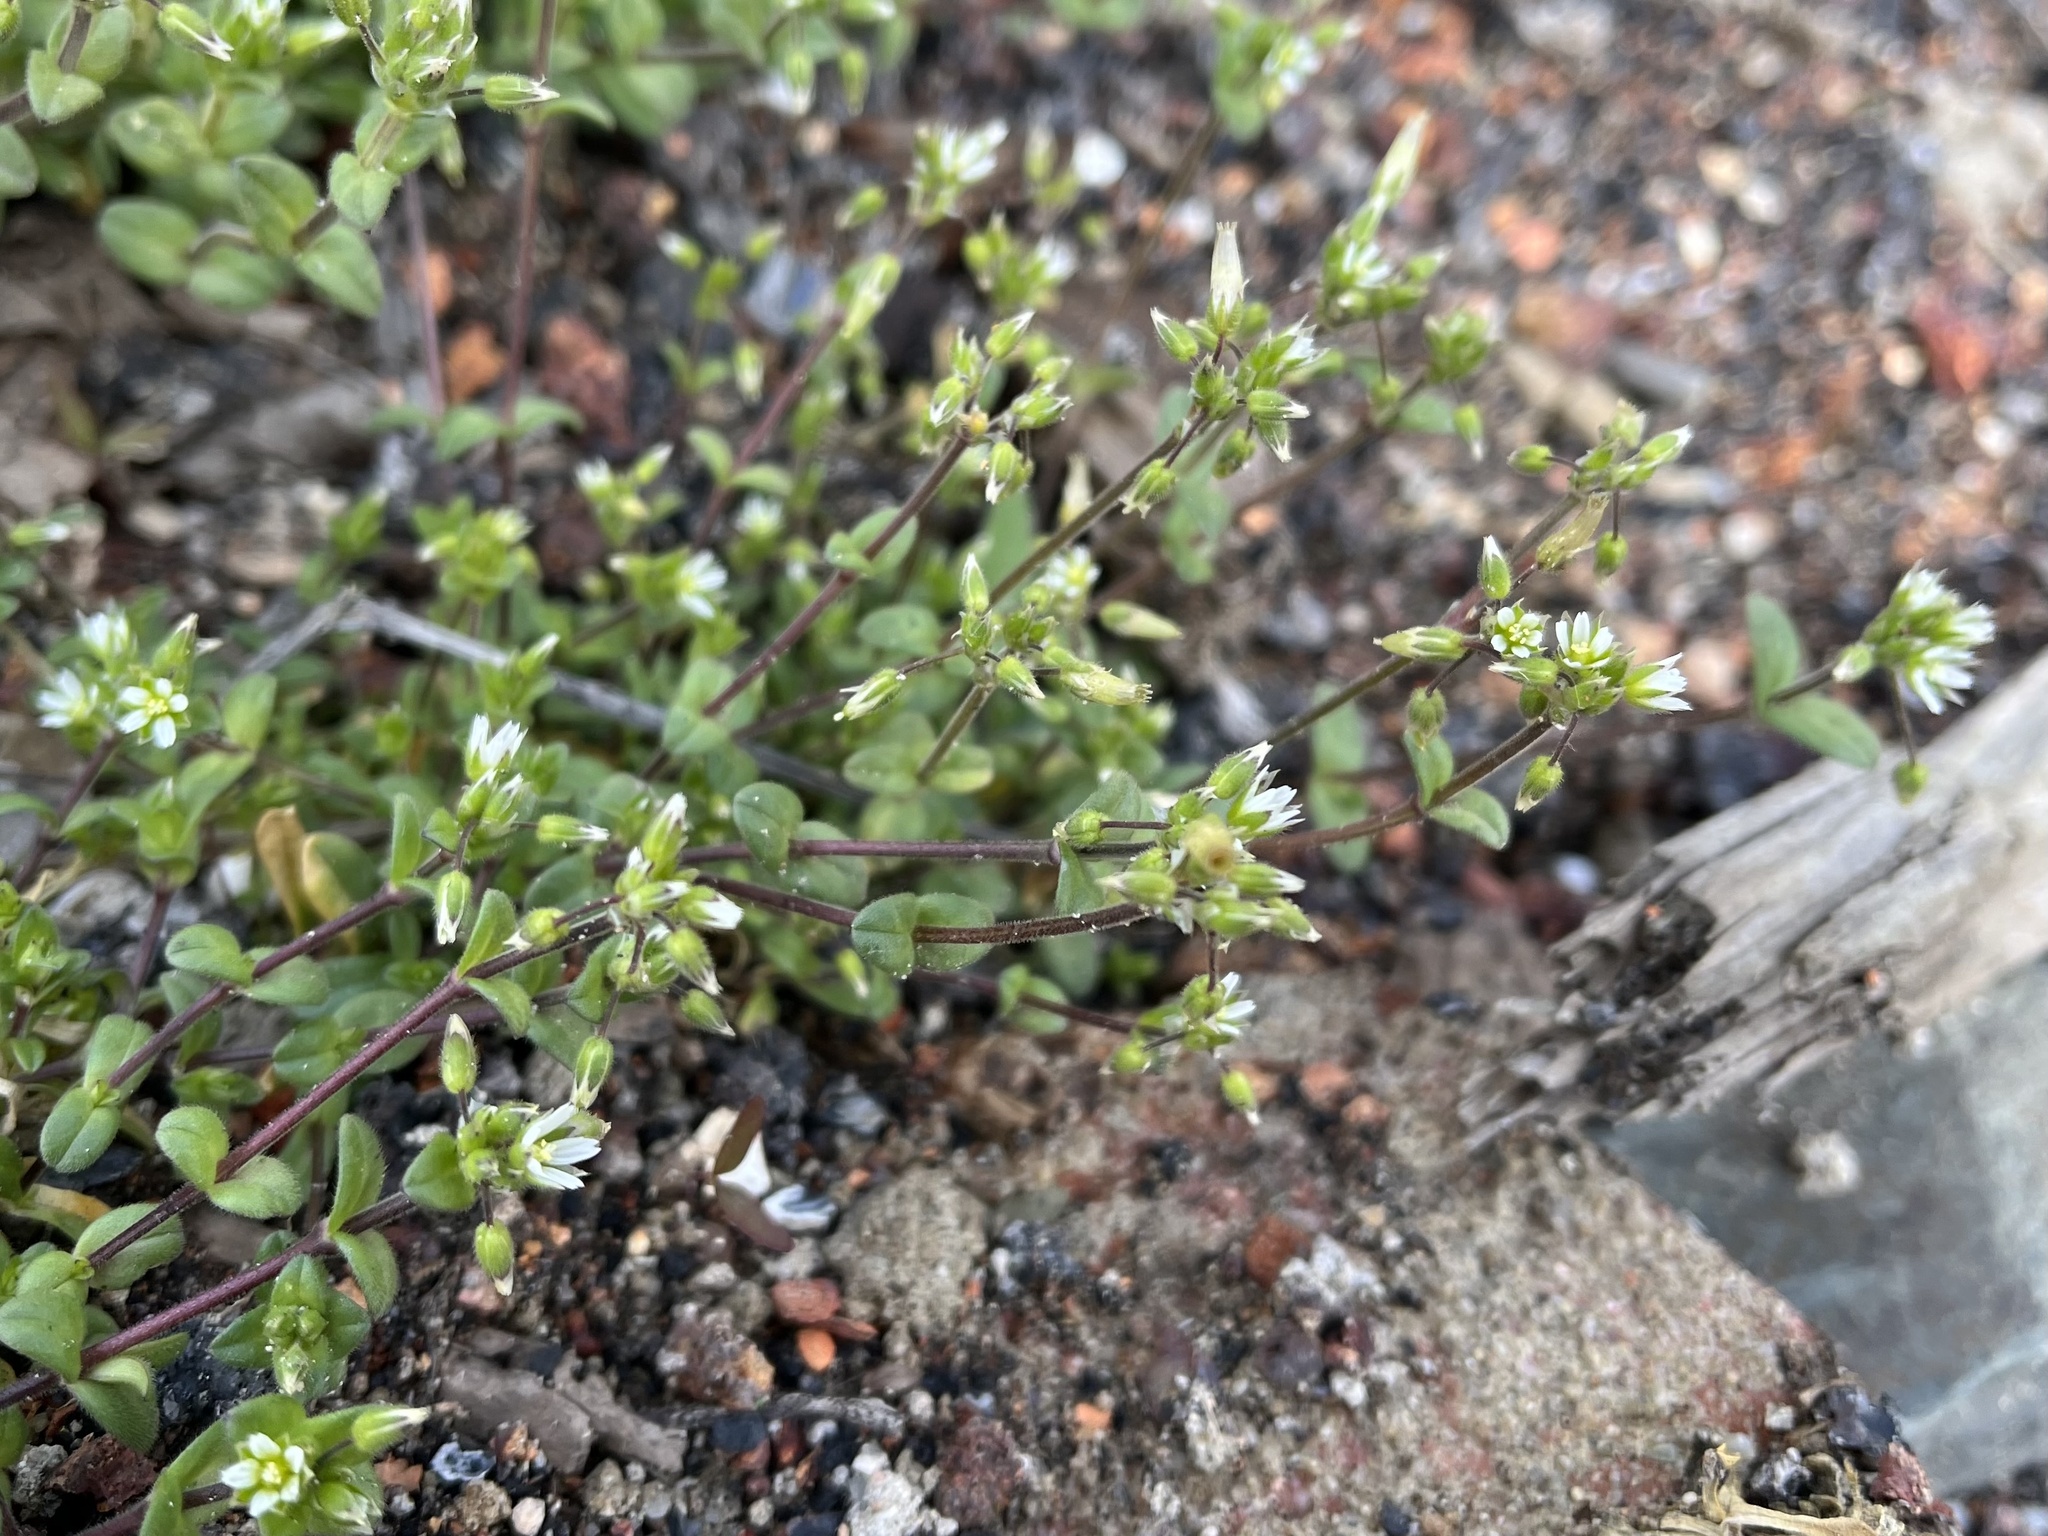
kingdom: Plantae
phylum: Tracheophyta
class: Magnoliopsida
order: Caryophyllales
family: Caryophyllaceae
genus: Cerastium
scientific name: Cerastium semidecandrum
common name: Little mouse-ear
